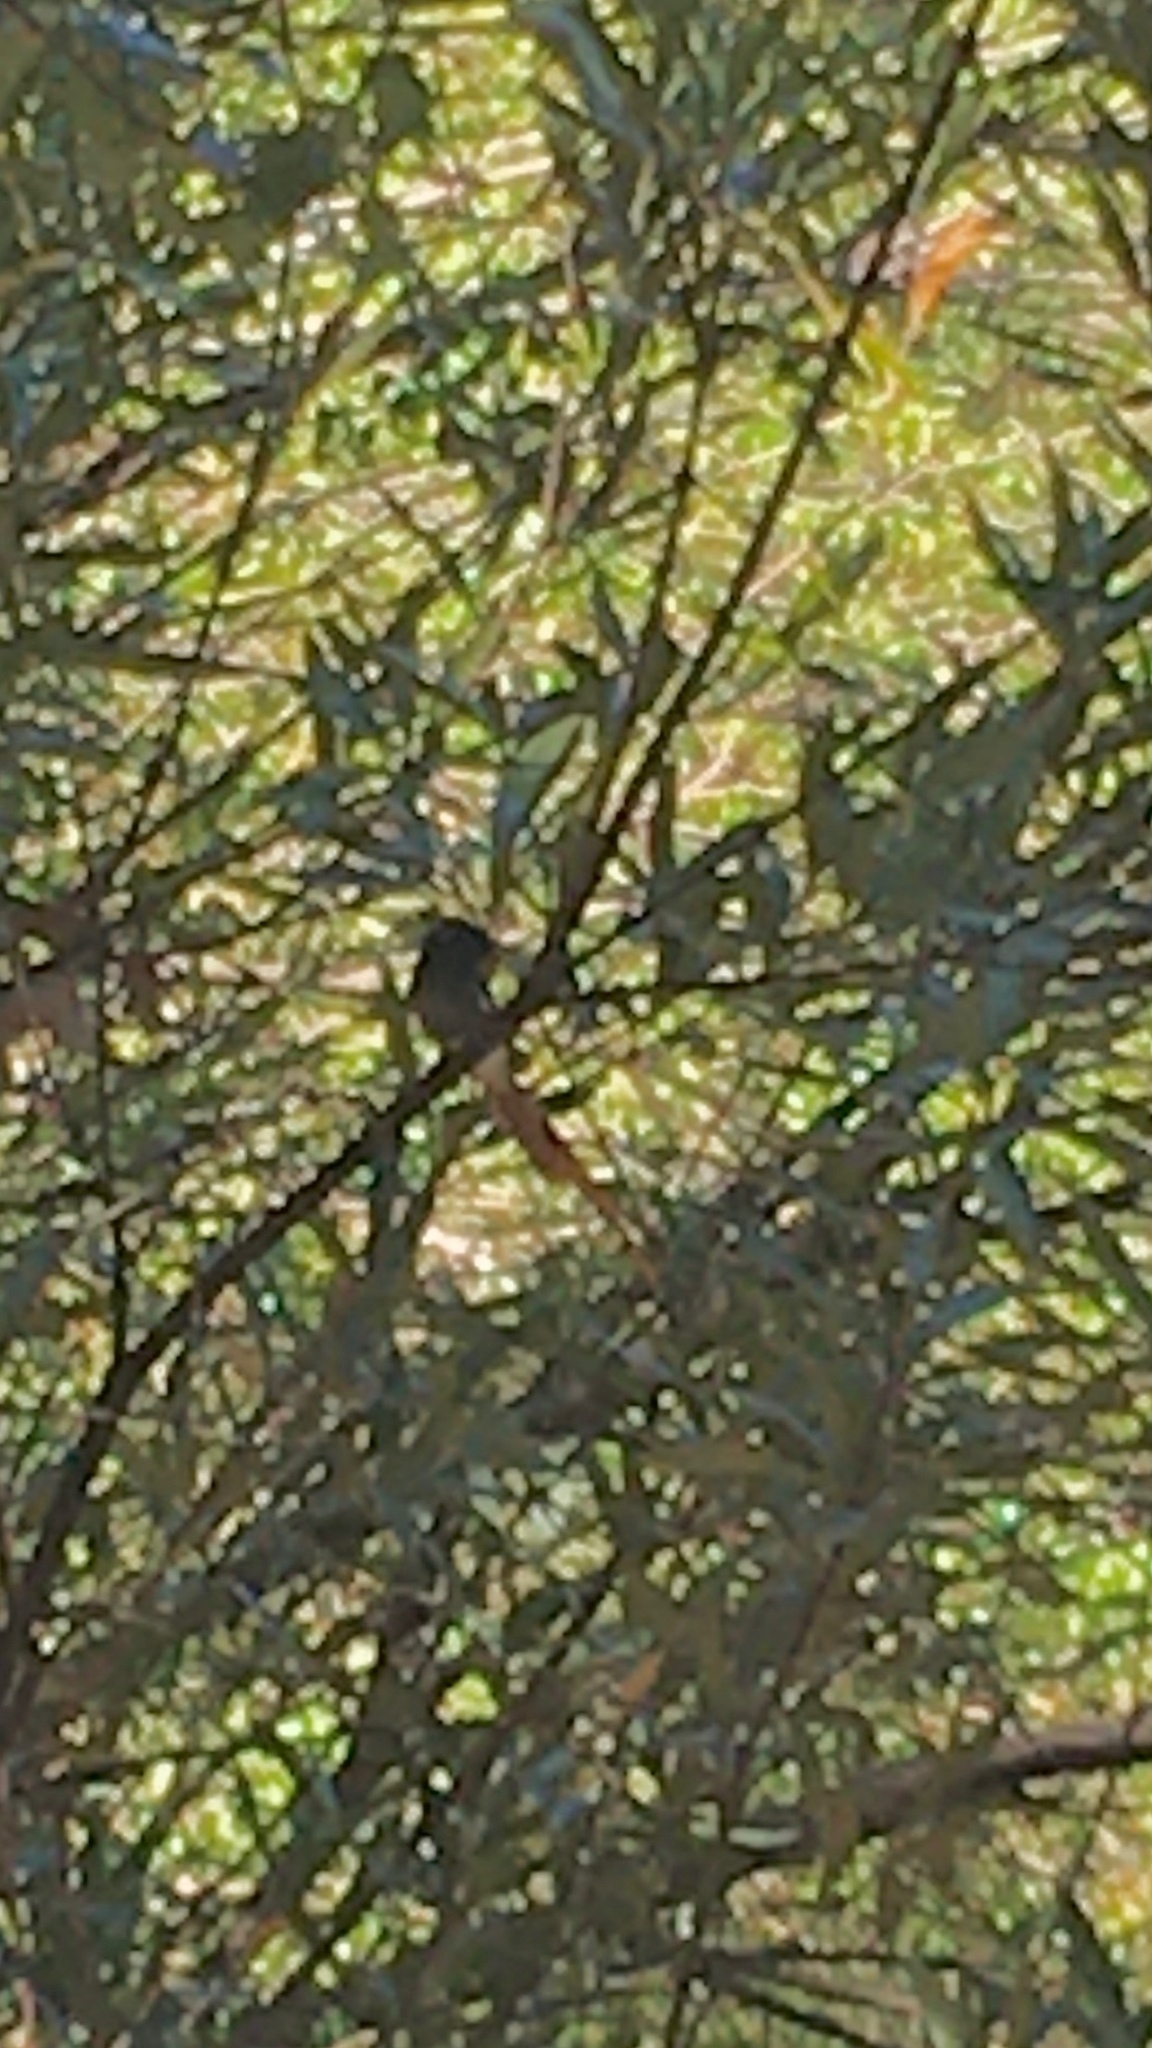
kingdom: Animalia
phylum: Chordata
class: Aves
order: Passeriformes
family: Monarchidae
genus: Terpsiphone
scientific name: Terpsiphone viridis
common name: African paradise flycatcher
